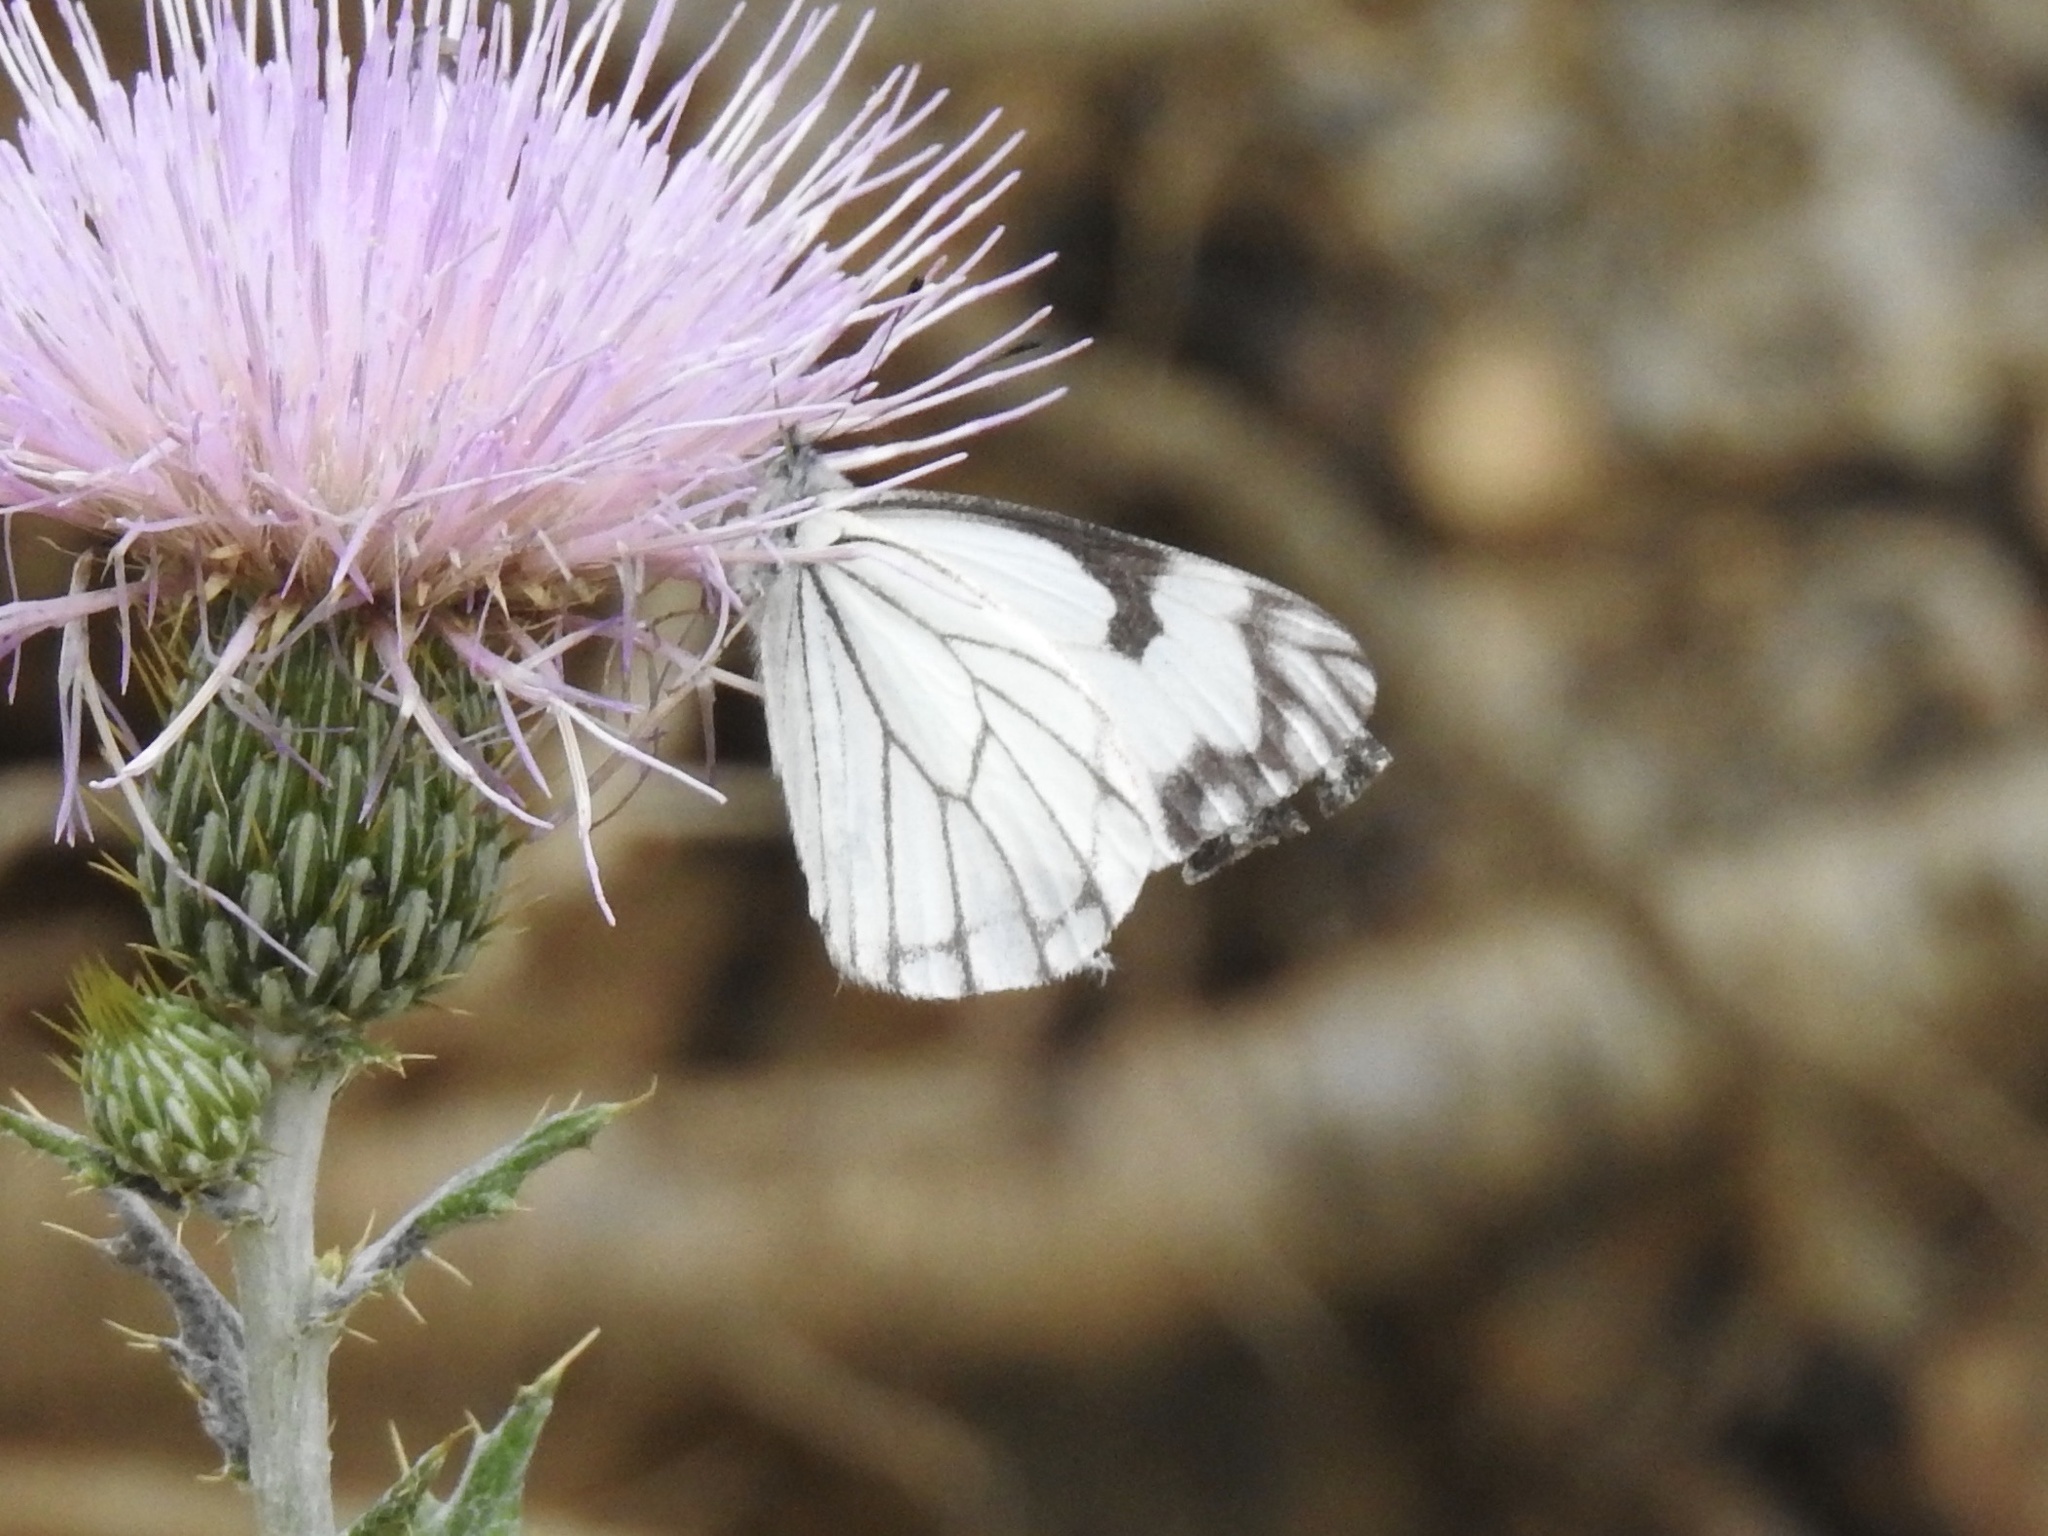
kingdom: Animalia
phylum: Arthropoda
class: Insecta
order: Lepidoptera
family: Pieridae
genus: Neophasia
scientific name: Neophasia menapia
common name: Pine white
